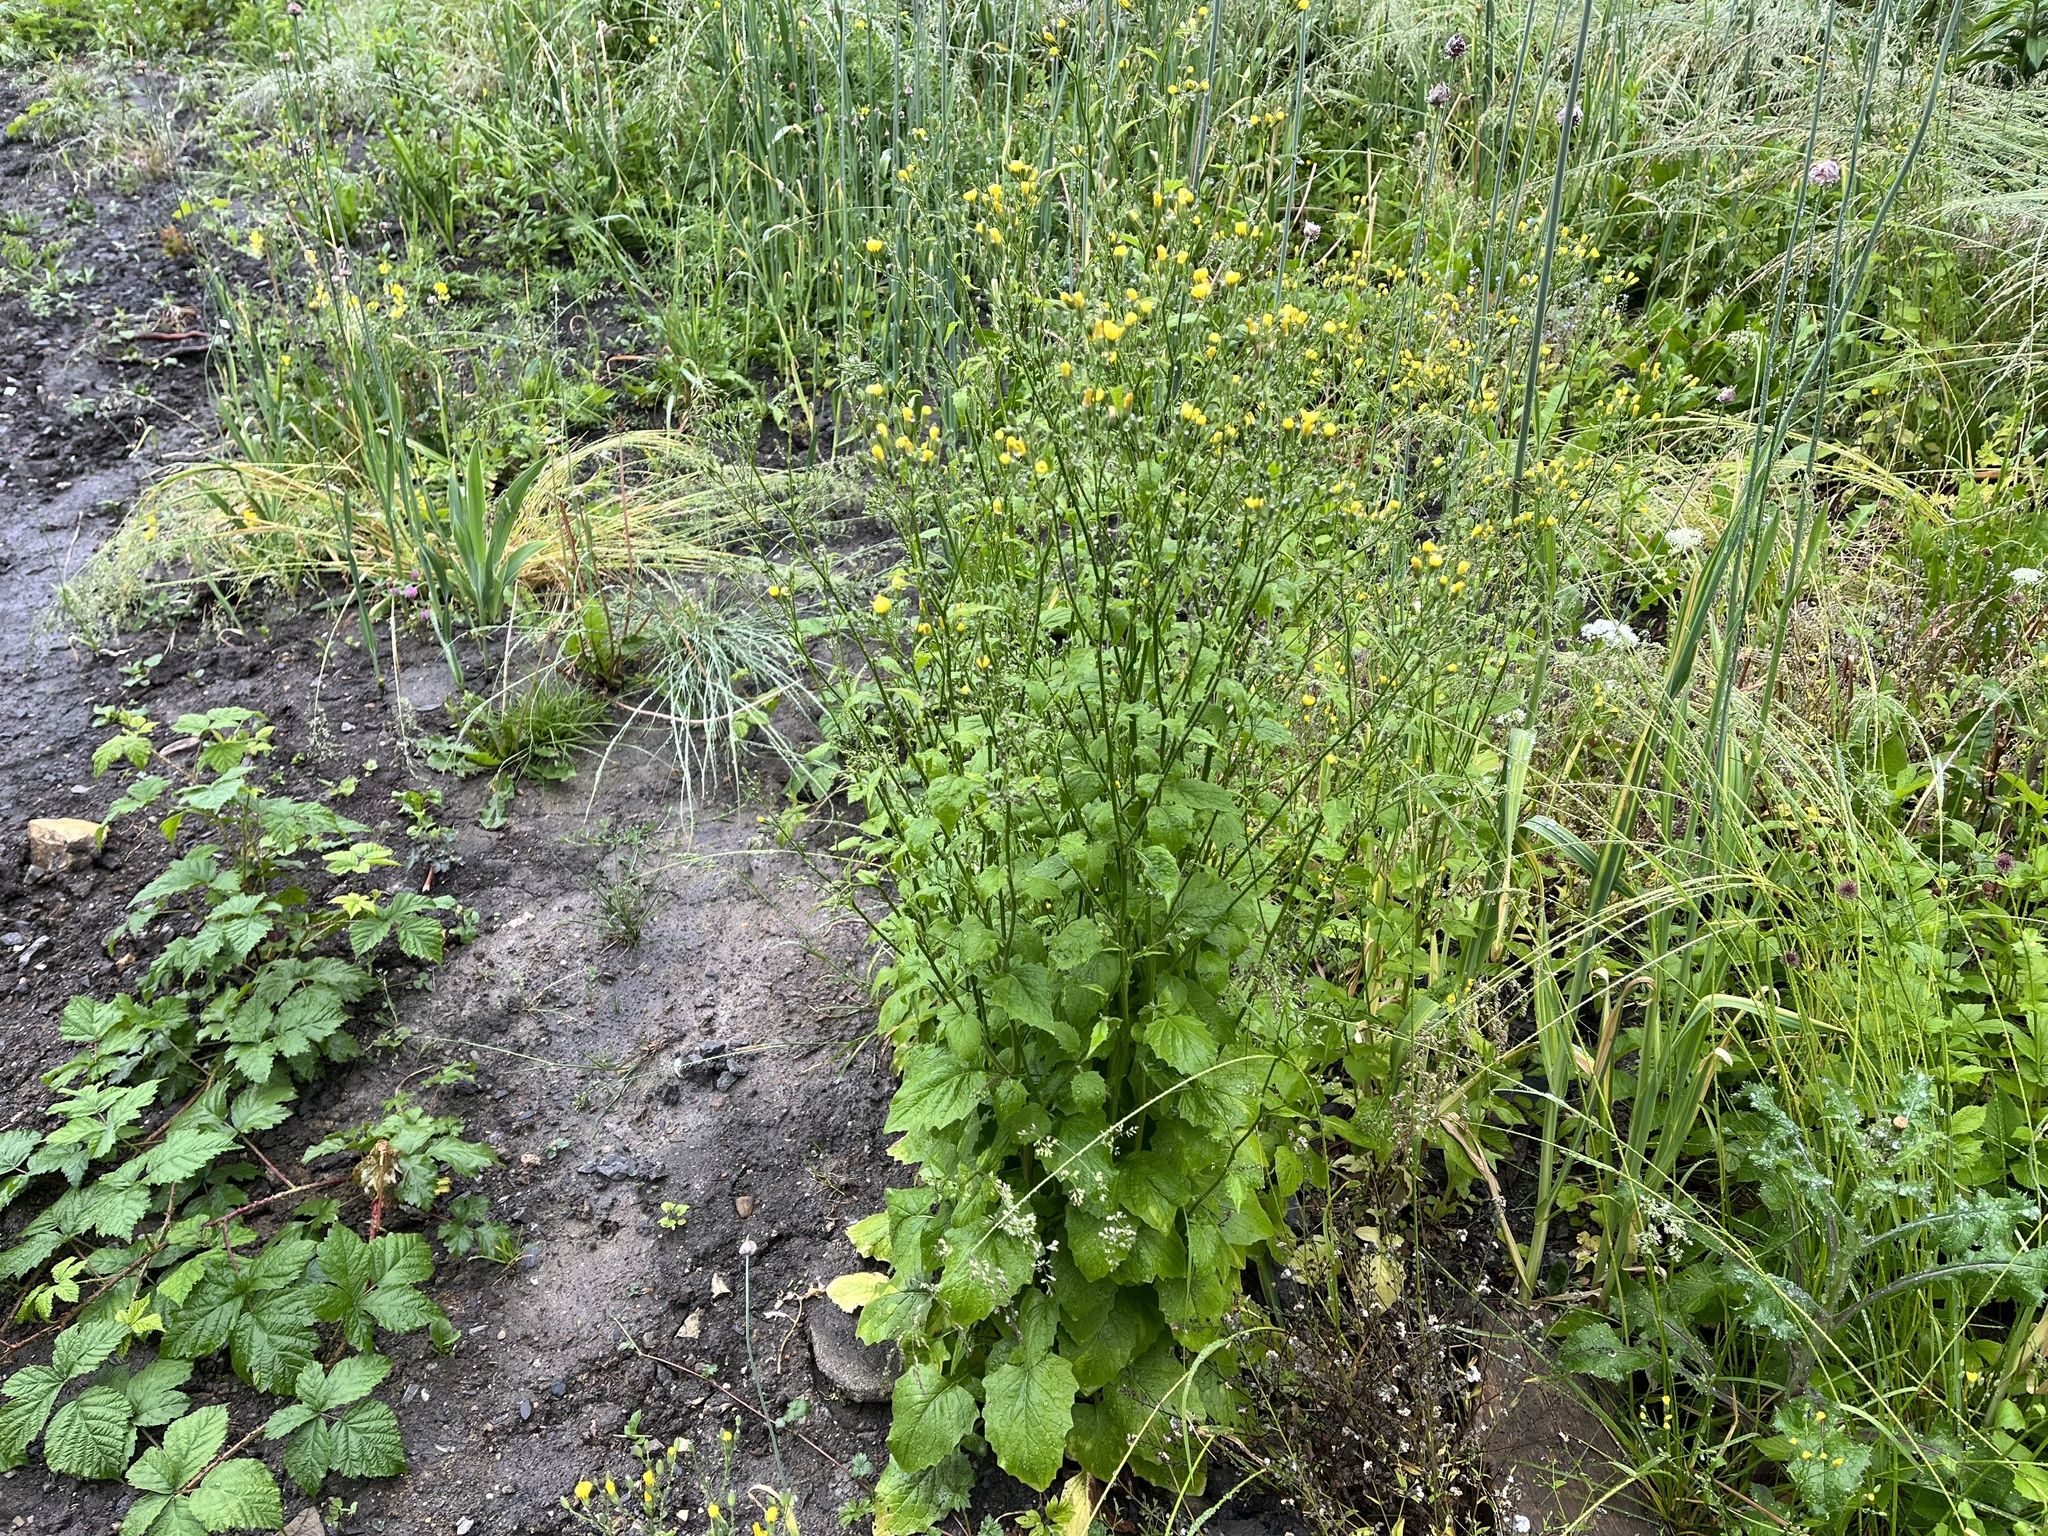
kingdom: Plantae
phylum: Tracheophyta
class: Magnoliopsida
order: Asterales
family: Asteraceae
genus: Lapsana
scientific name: Lapsana communis
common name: Nipplewort
